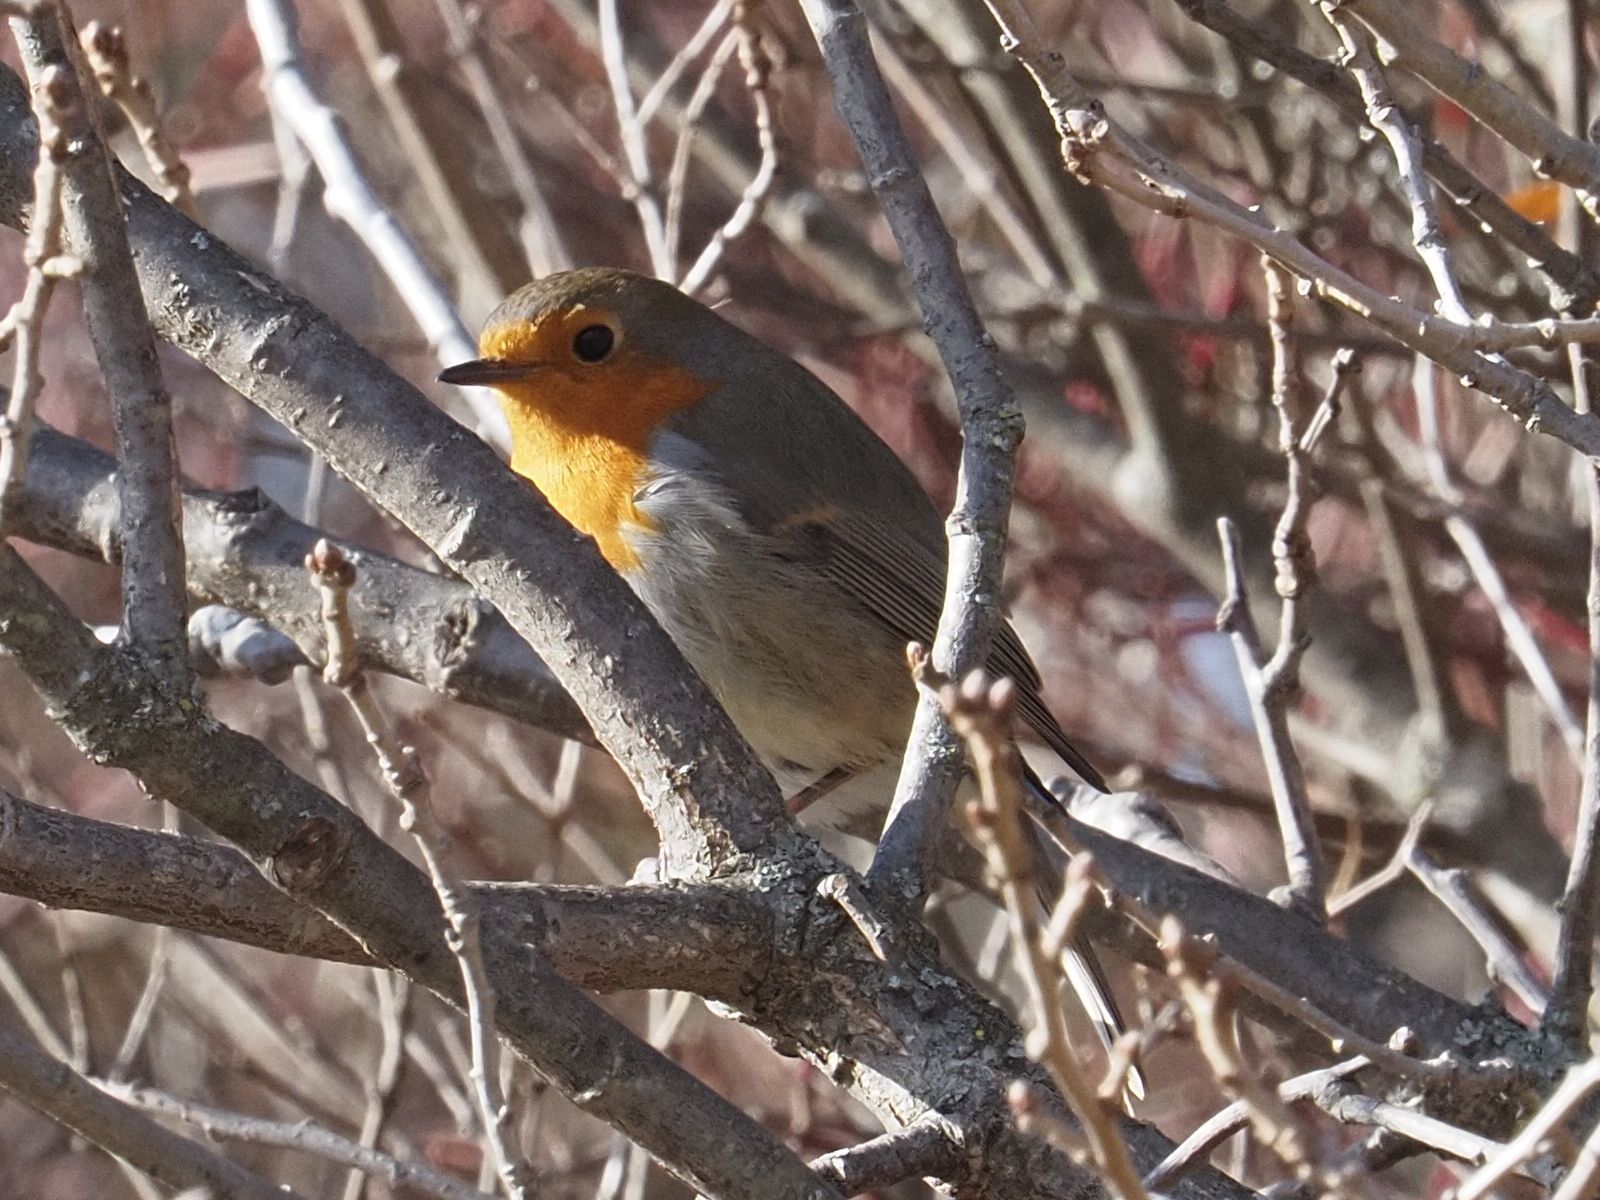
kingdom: Animalia
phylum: Chordata
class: Aves
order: Passeriformes
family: Muscicapidae
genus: Erithacus
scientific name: Erithacus rubecula
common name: European robin
